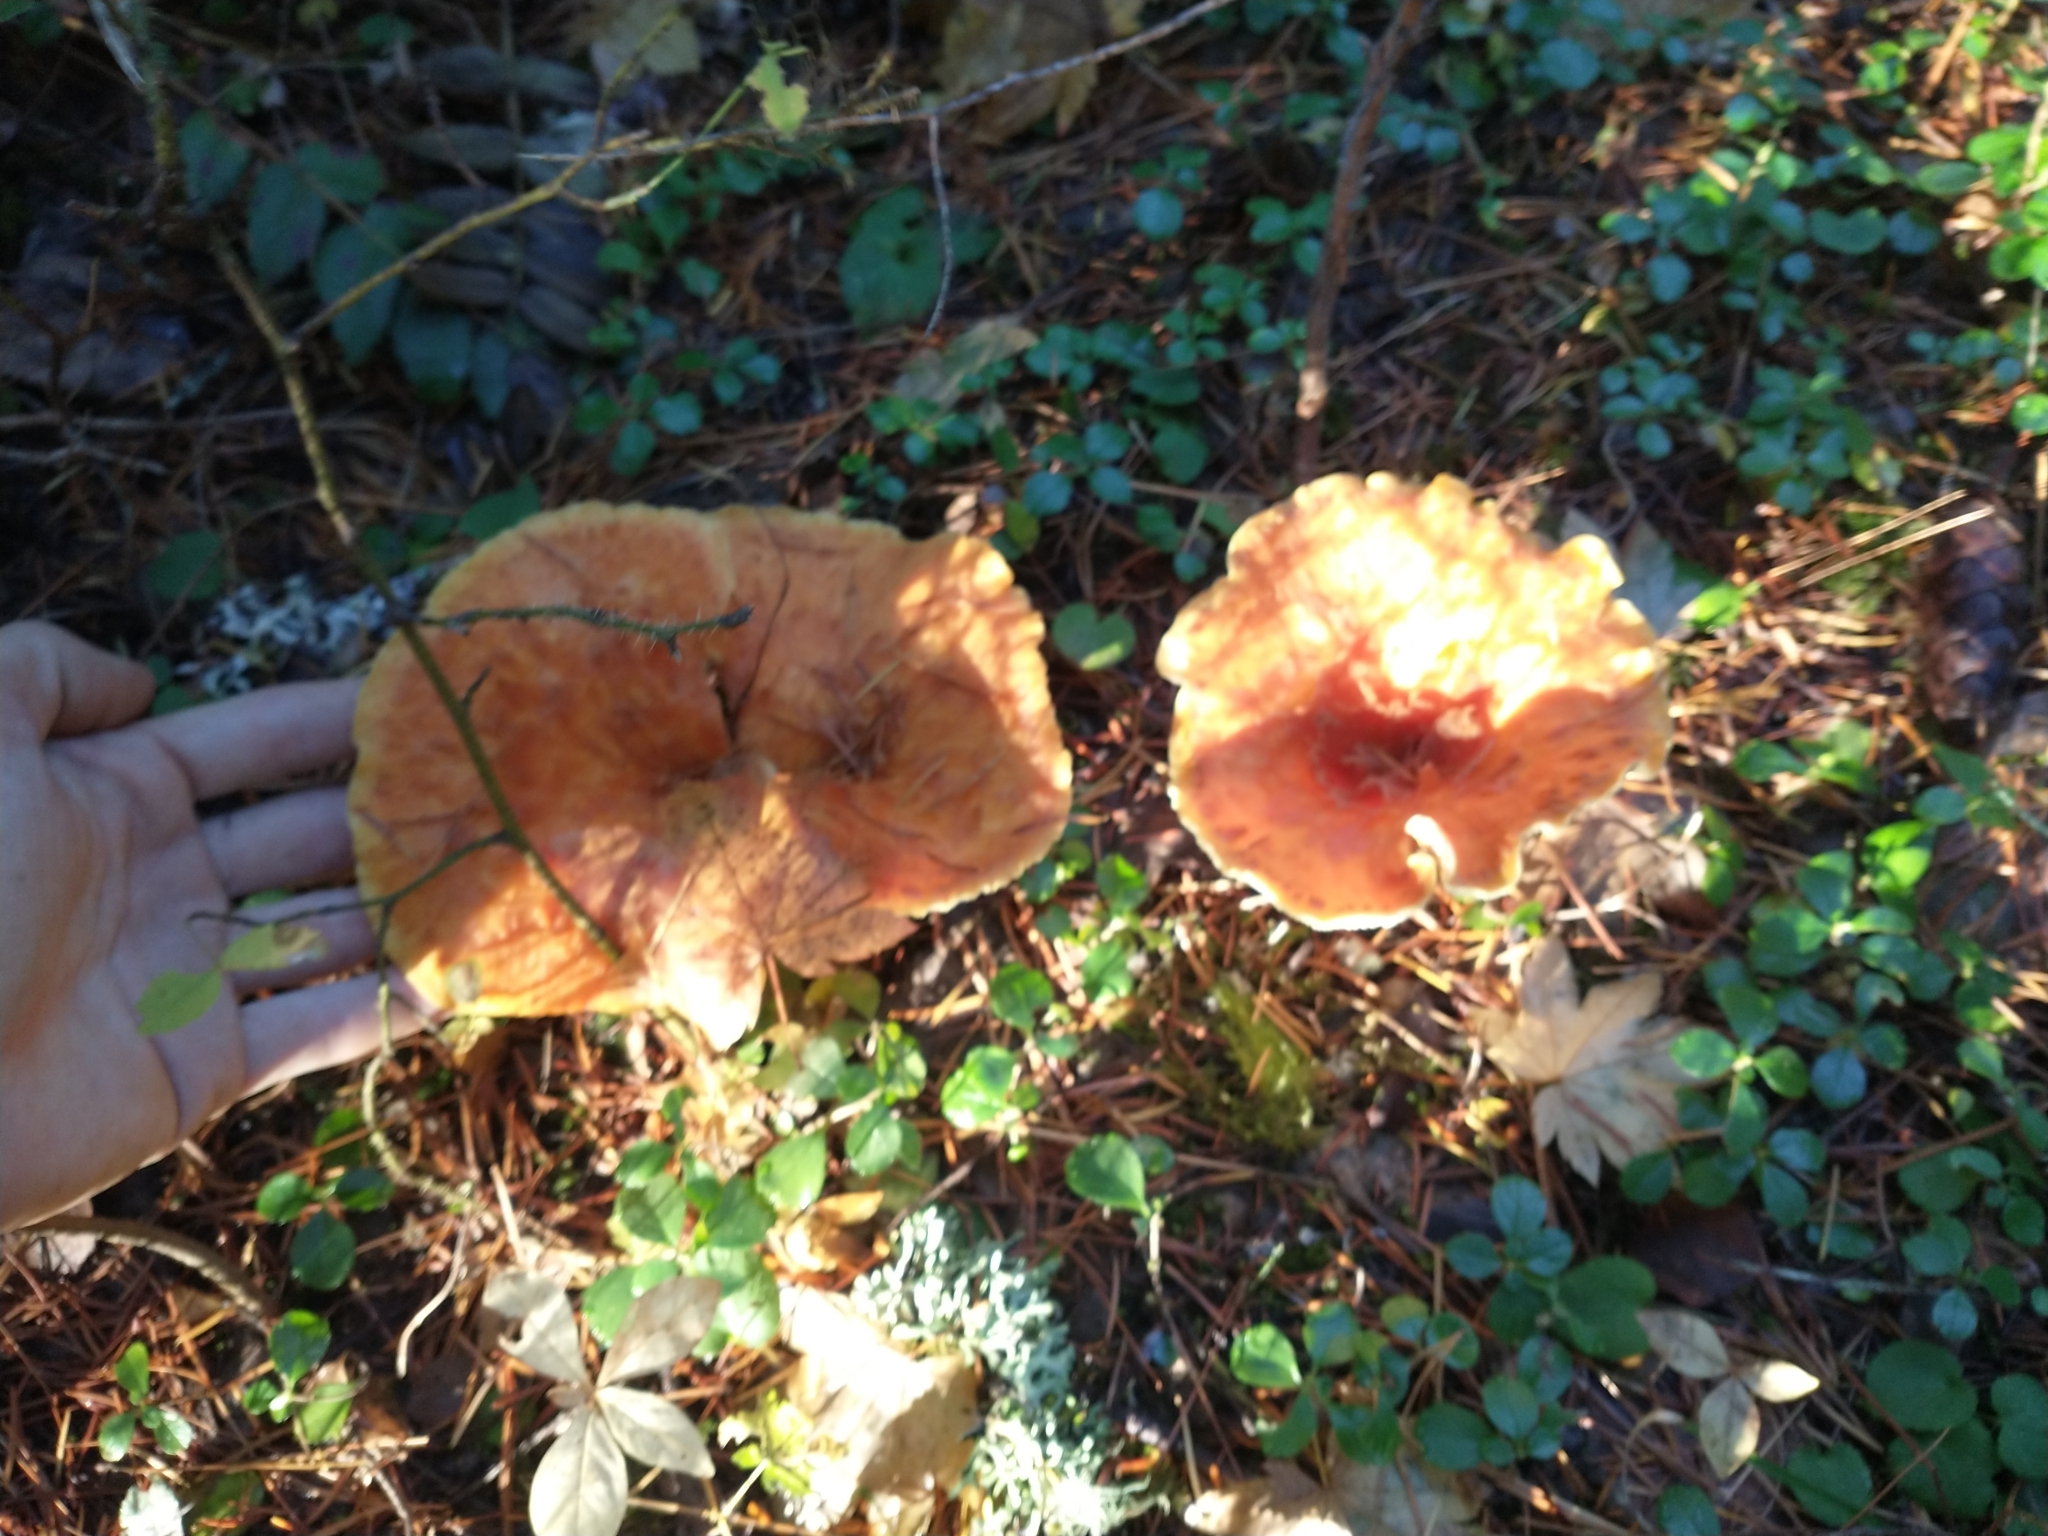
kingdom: Fungi
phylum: Basidiomycota
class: Agaricomycetes
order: Gomphales
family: Gomphaceae
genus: Turbinellus
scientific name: Turbinellus floccosus
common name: Scaly chanterelle
